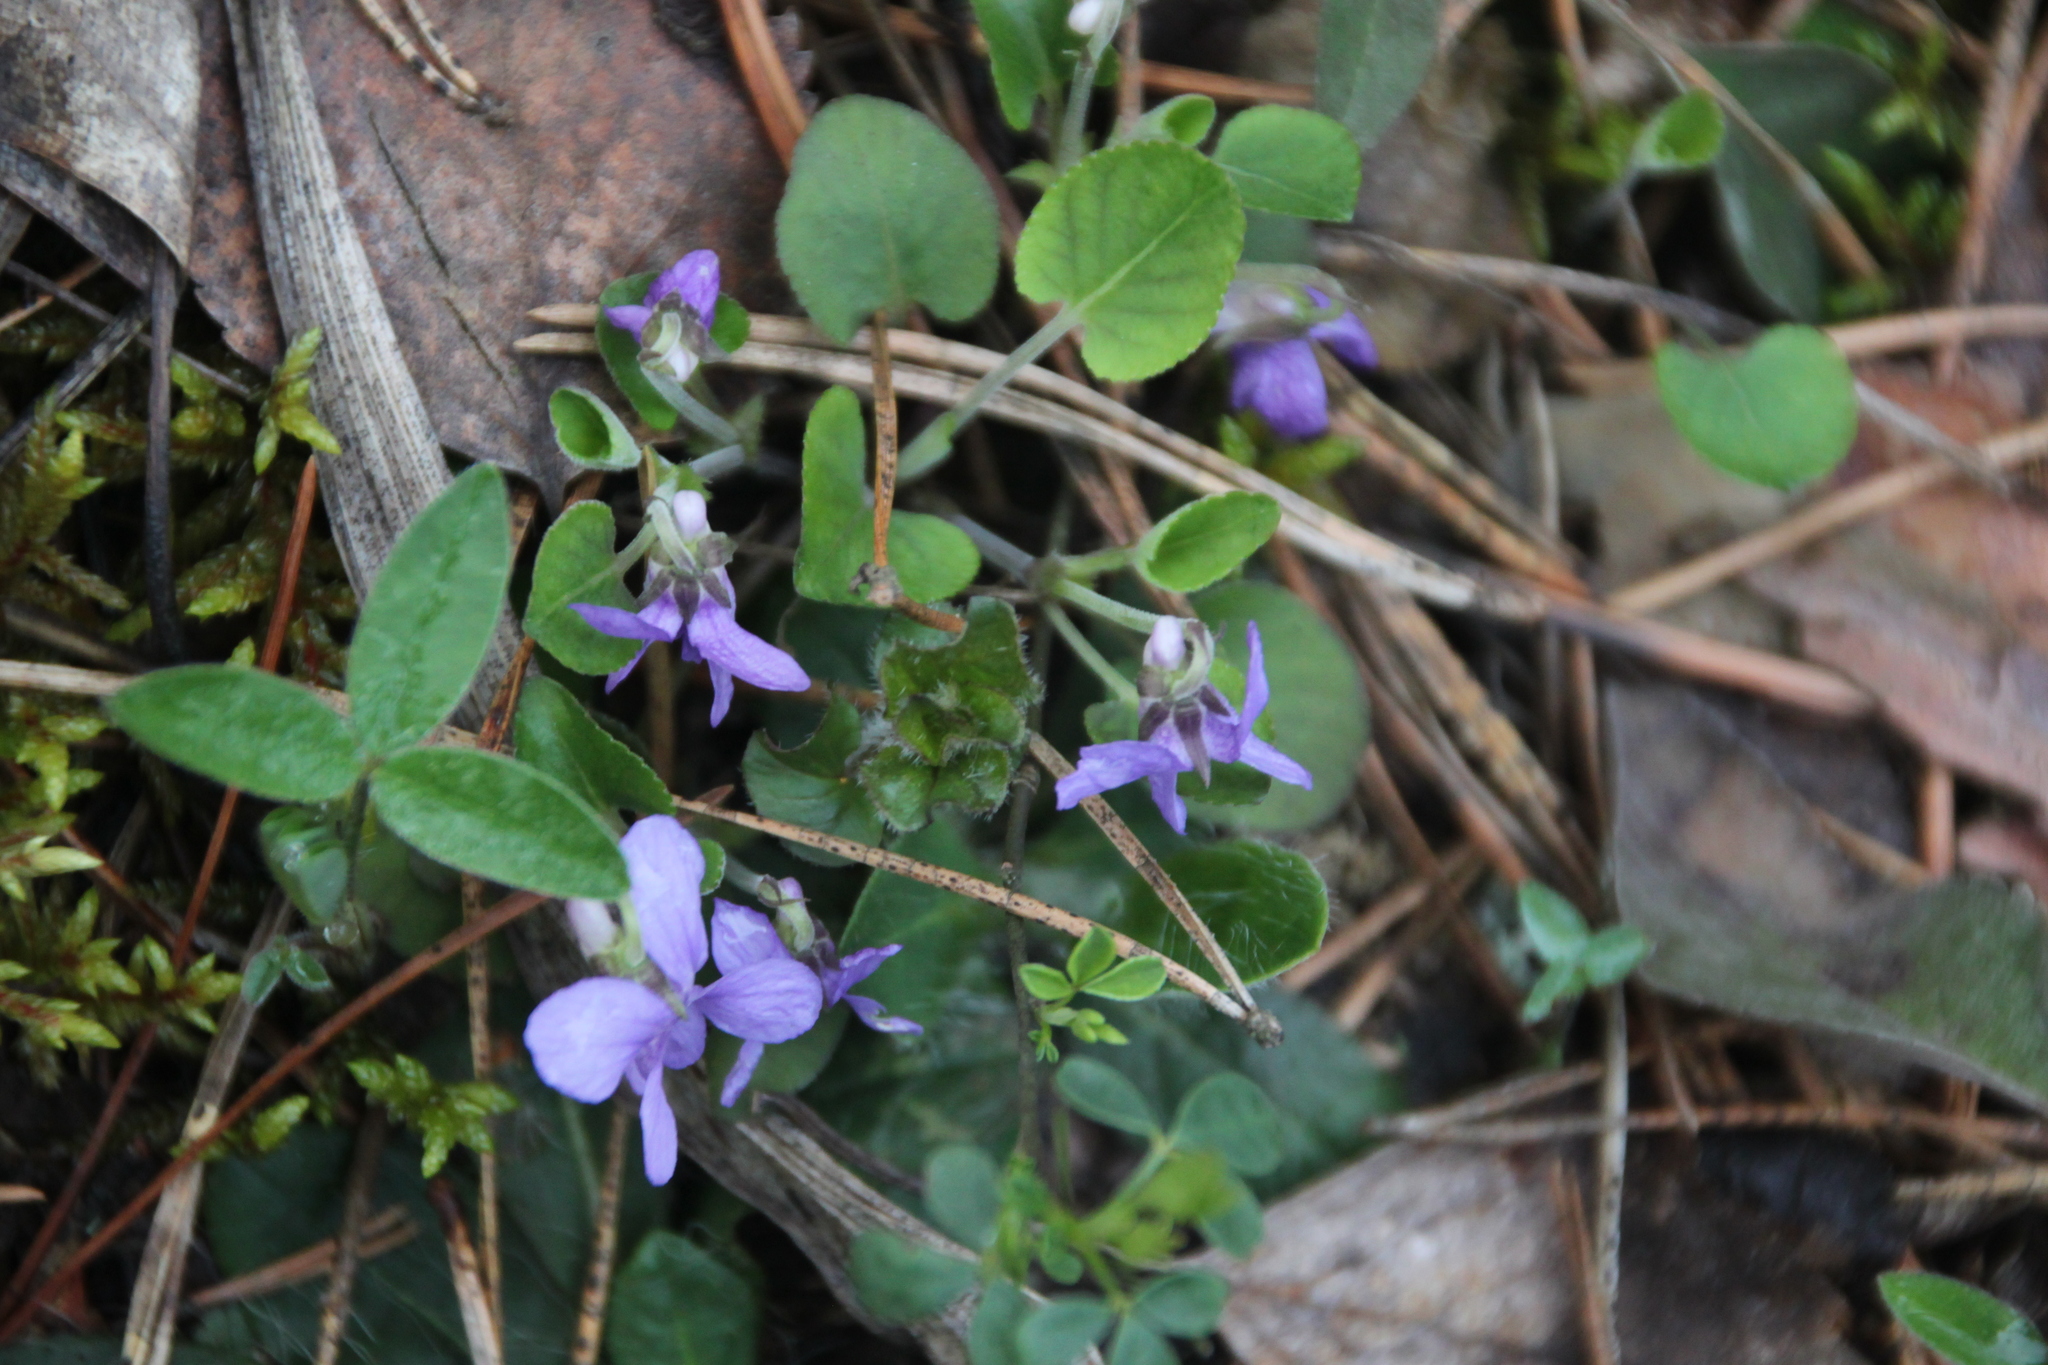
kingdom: Plantae
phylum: Tracheophyta
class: Magnoliopsida
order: Malpighiales
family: Violaceae
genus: Viola
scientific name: Viola rupestris
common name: Teesdale violet
